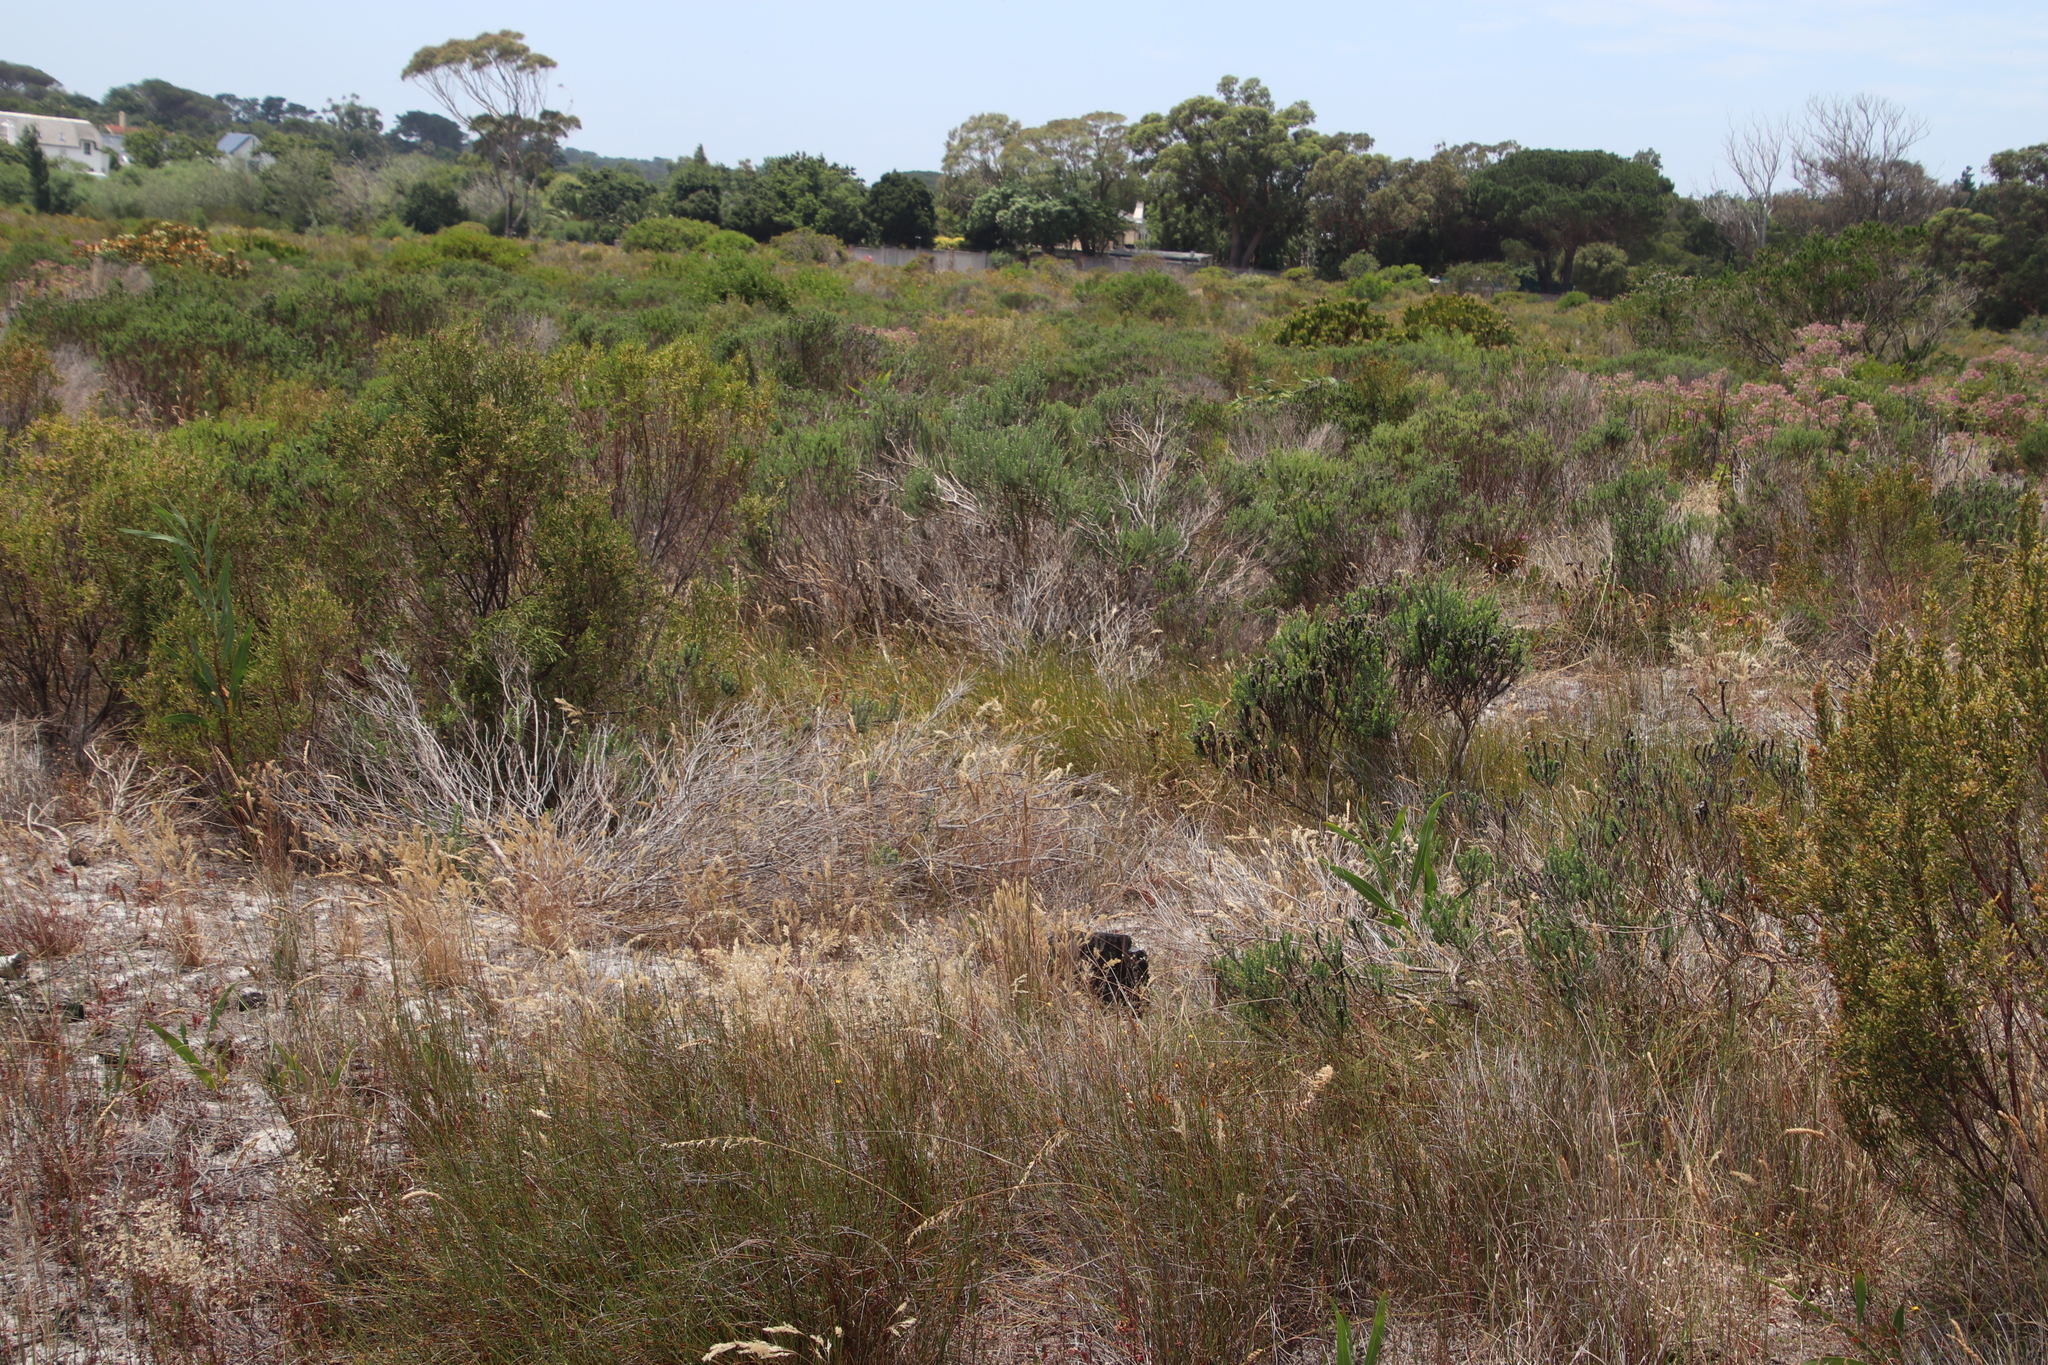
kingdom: Plantae
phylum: Tracheophyta
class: Liliopsida
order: Poales
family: Restionaceae
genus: Willdenowia
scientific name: Willdenowia sulcata
